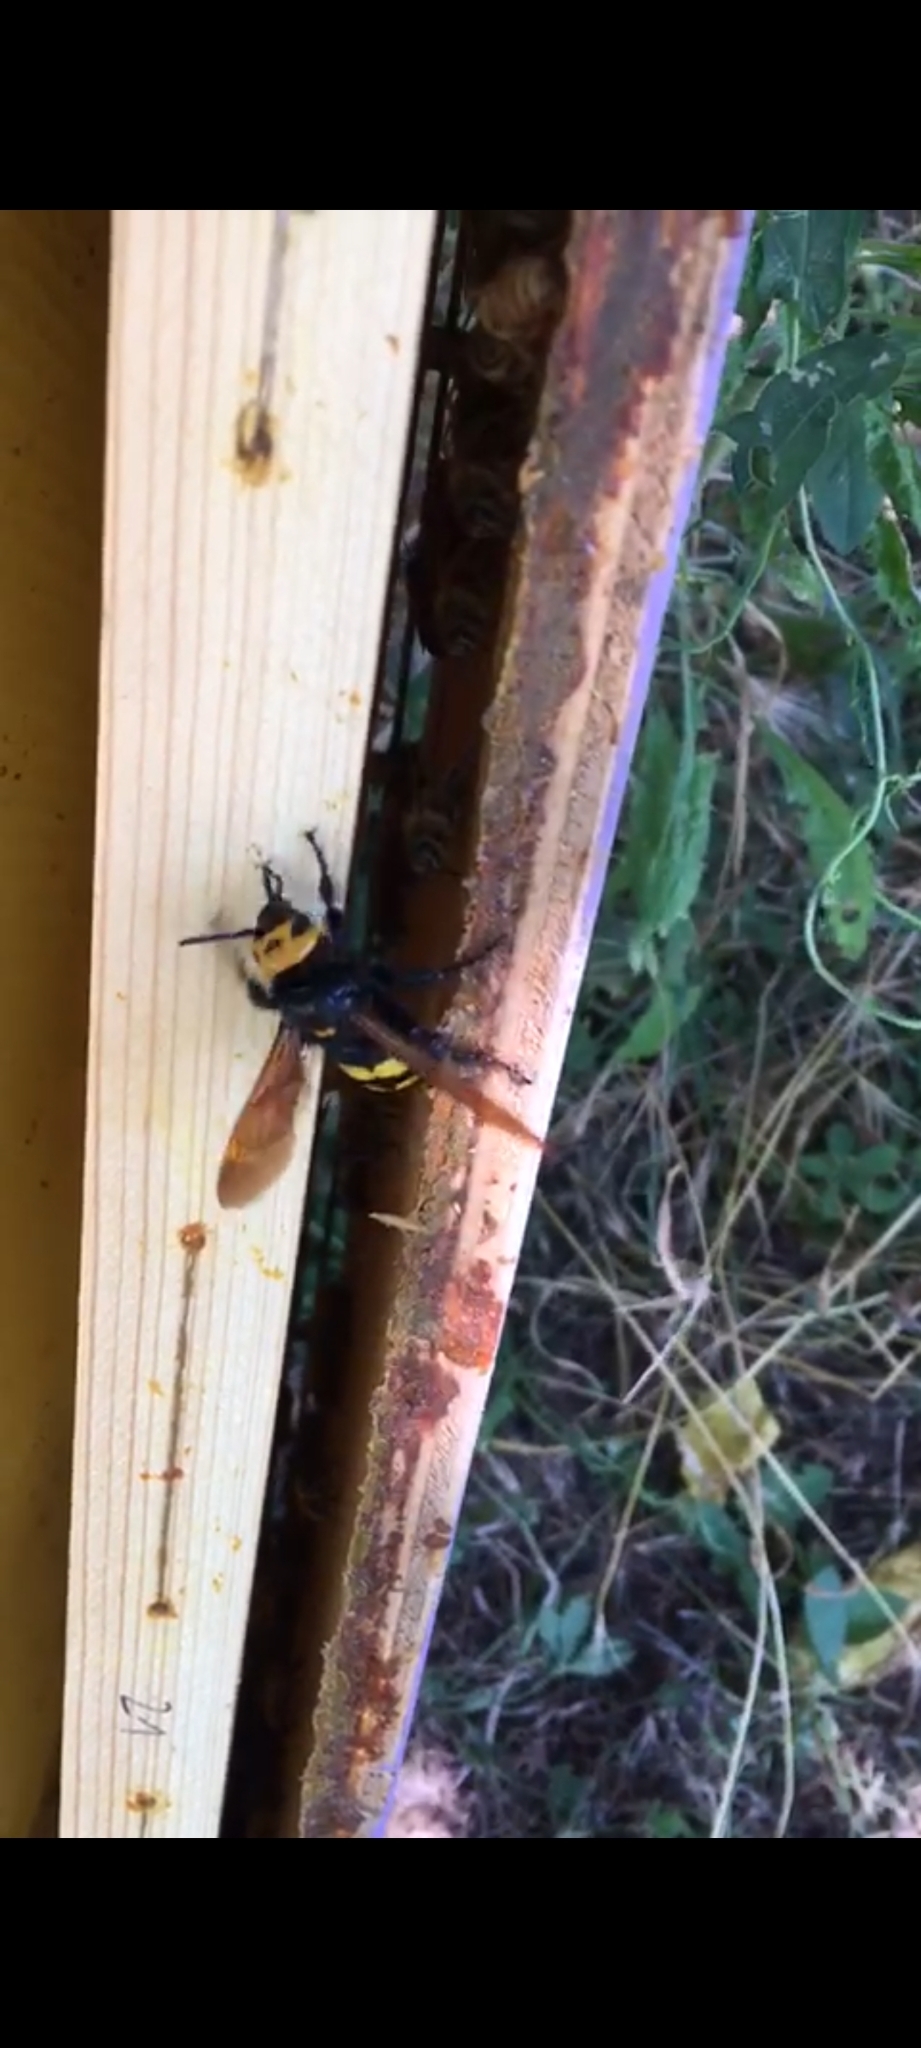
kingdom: Animalia
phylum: Arthropoda
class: Insecta
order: Hymenoptera
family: Scoliidae
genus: Megascolia
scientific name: Megascolia maculata
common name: Mammoth wasp
